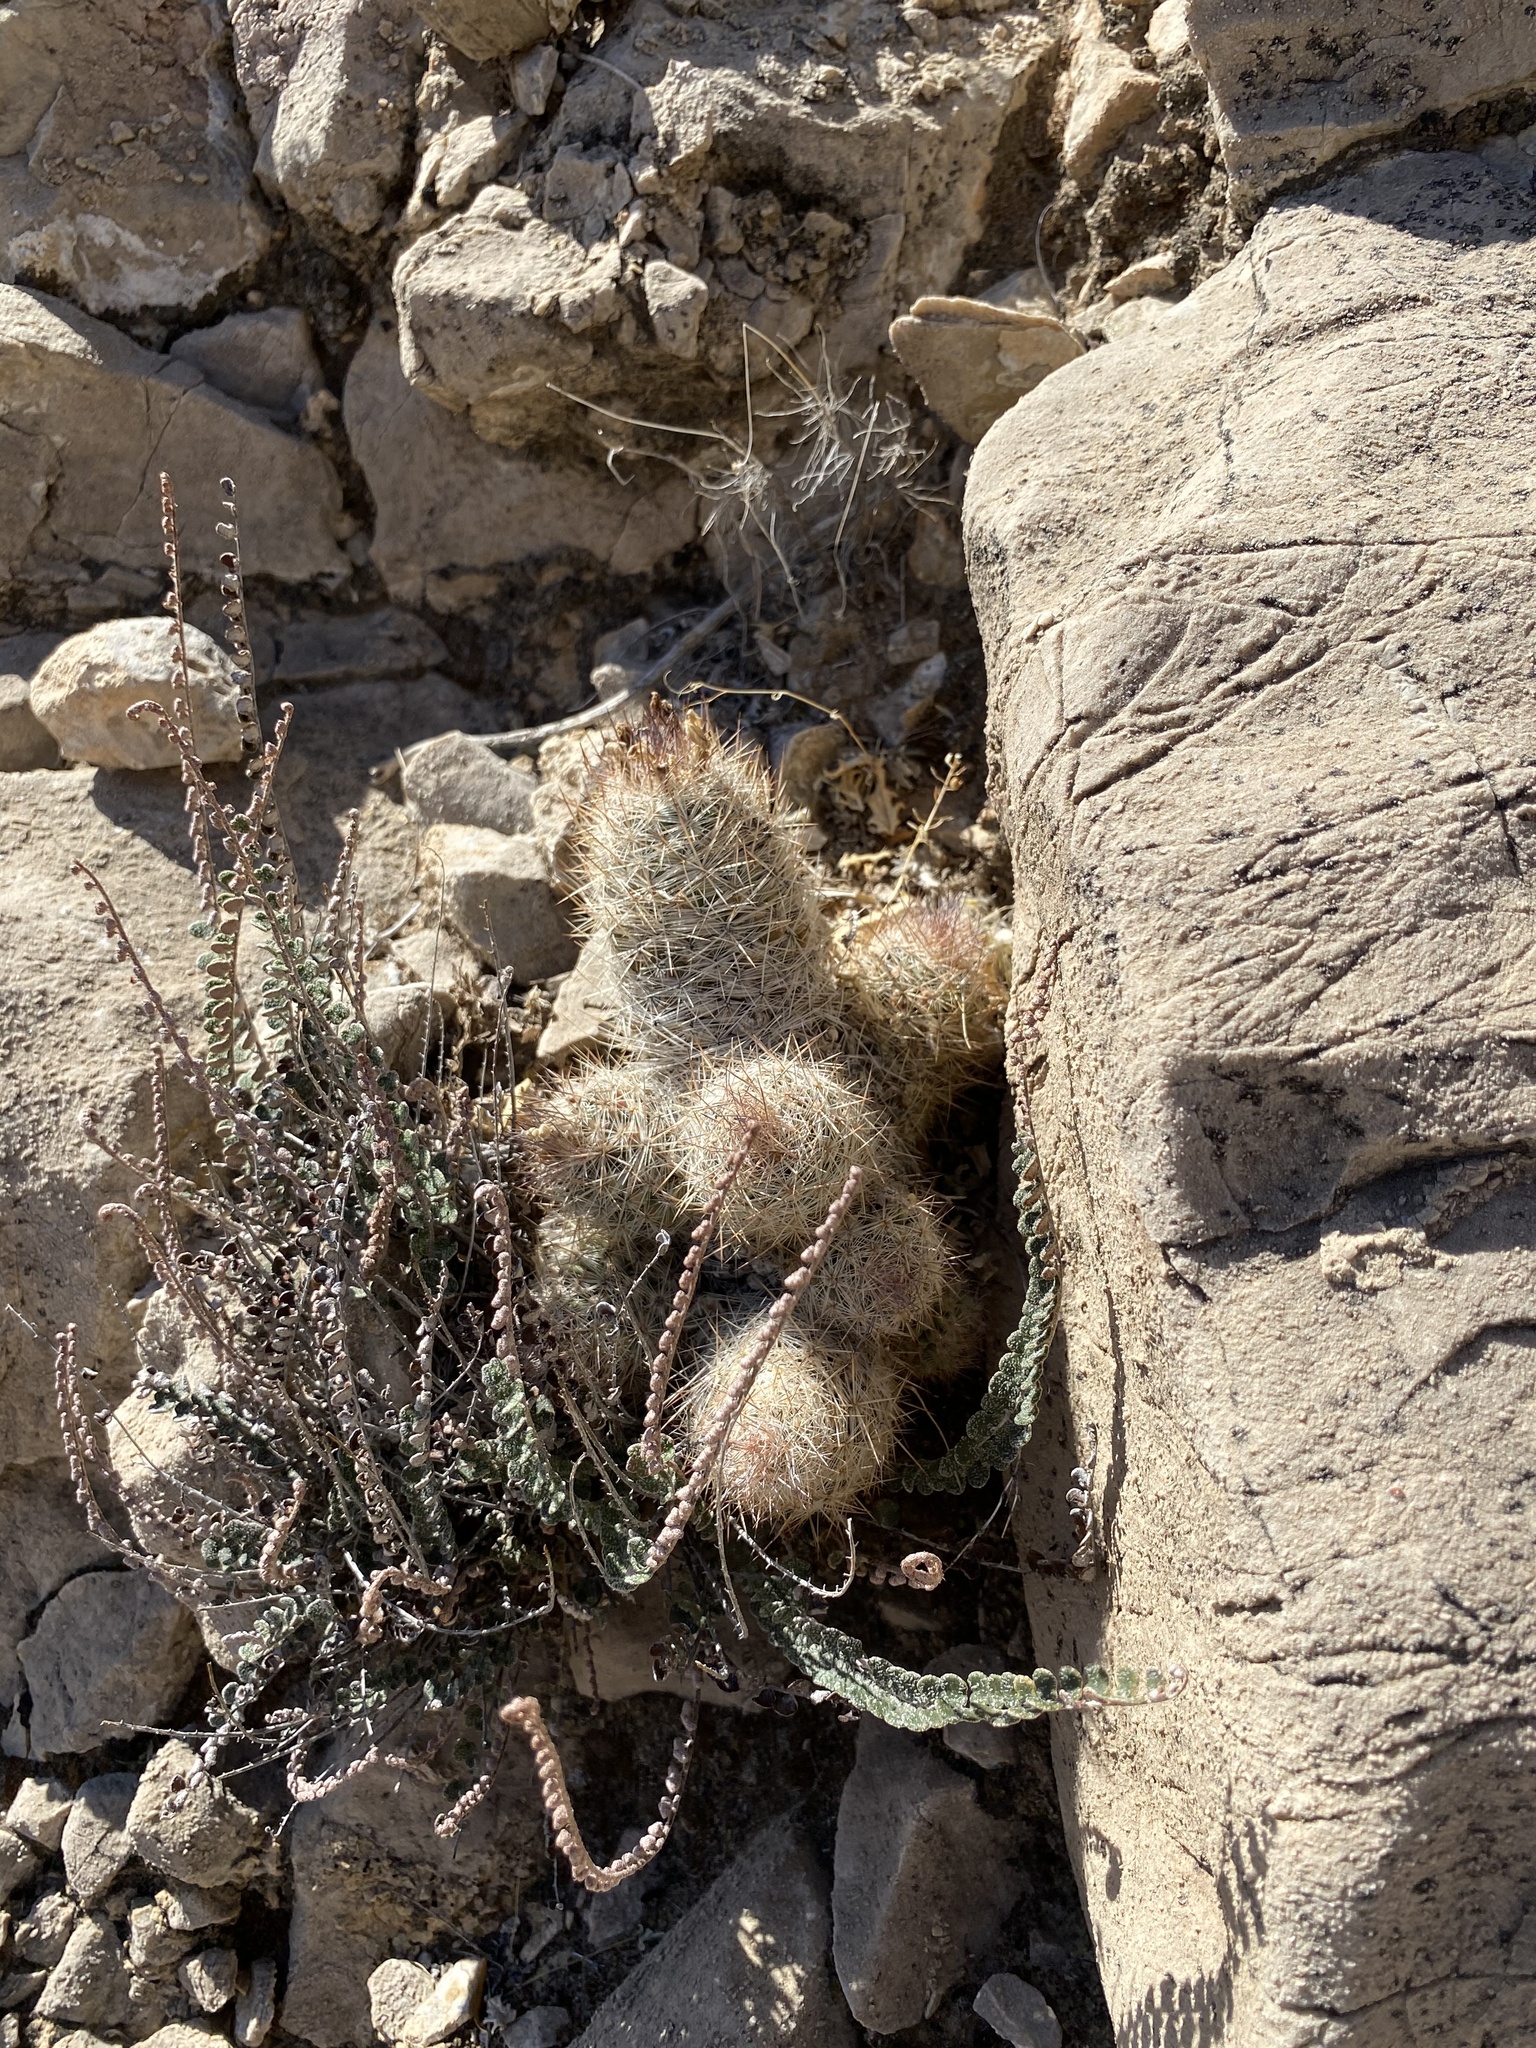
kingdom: Plantae
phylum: Tracheophyta
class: Magnoliopsida
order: Caryophyllales
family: Cactaceae
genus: Pelecyphora
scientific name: Pelecyphora tuberculosa
